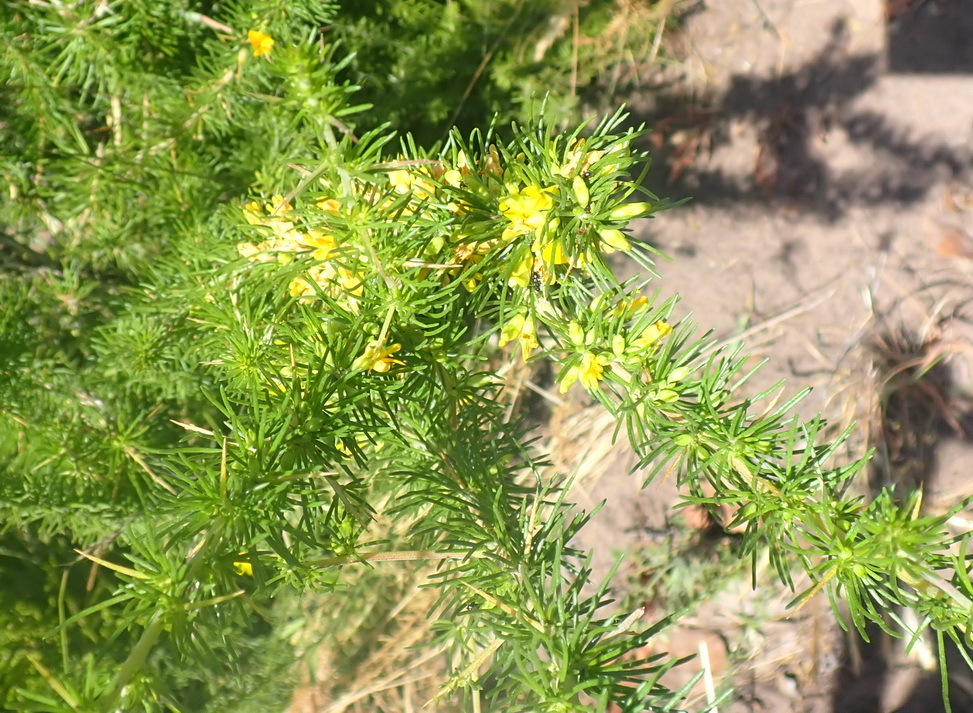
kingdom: Plantae
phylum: Tracheophyta
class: Magnoliopsida
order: Fabales
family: Fabaceae
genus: Aspalathus
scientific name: Aspalathus spinosa
